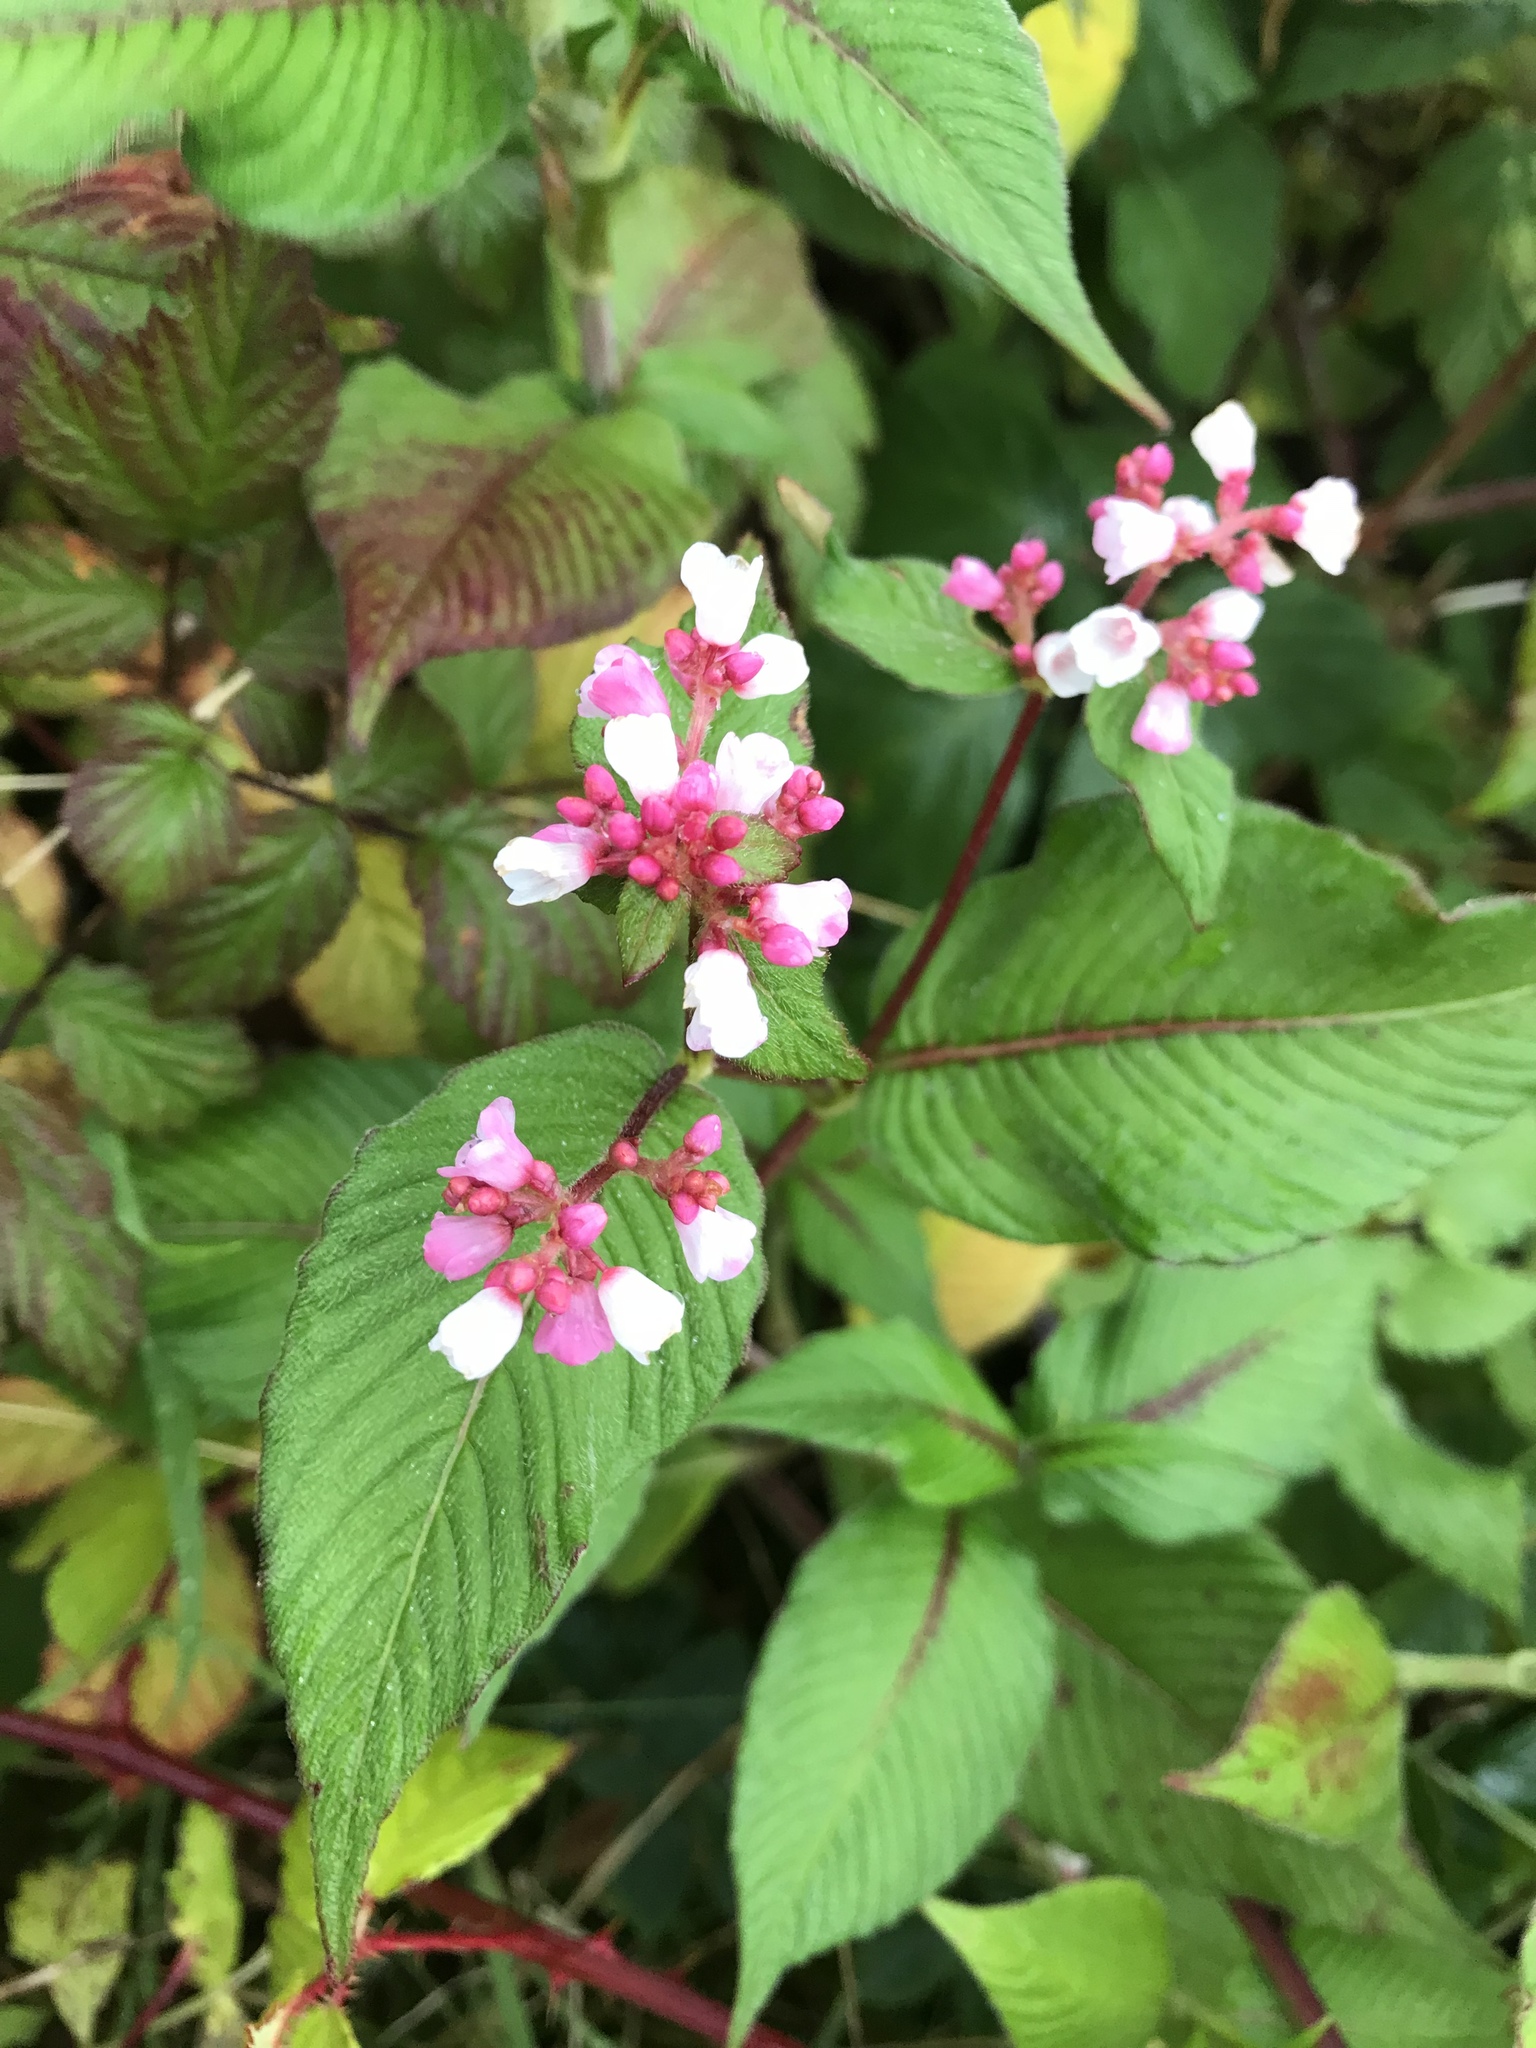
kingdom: Plantae
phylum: Tracheophyta
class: Magnoliopsida
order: Caryophyllales
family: Polygonaceae
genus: Koenigia
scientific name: Koenigia campanulata
